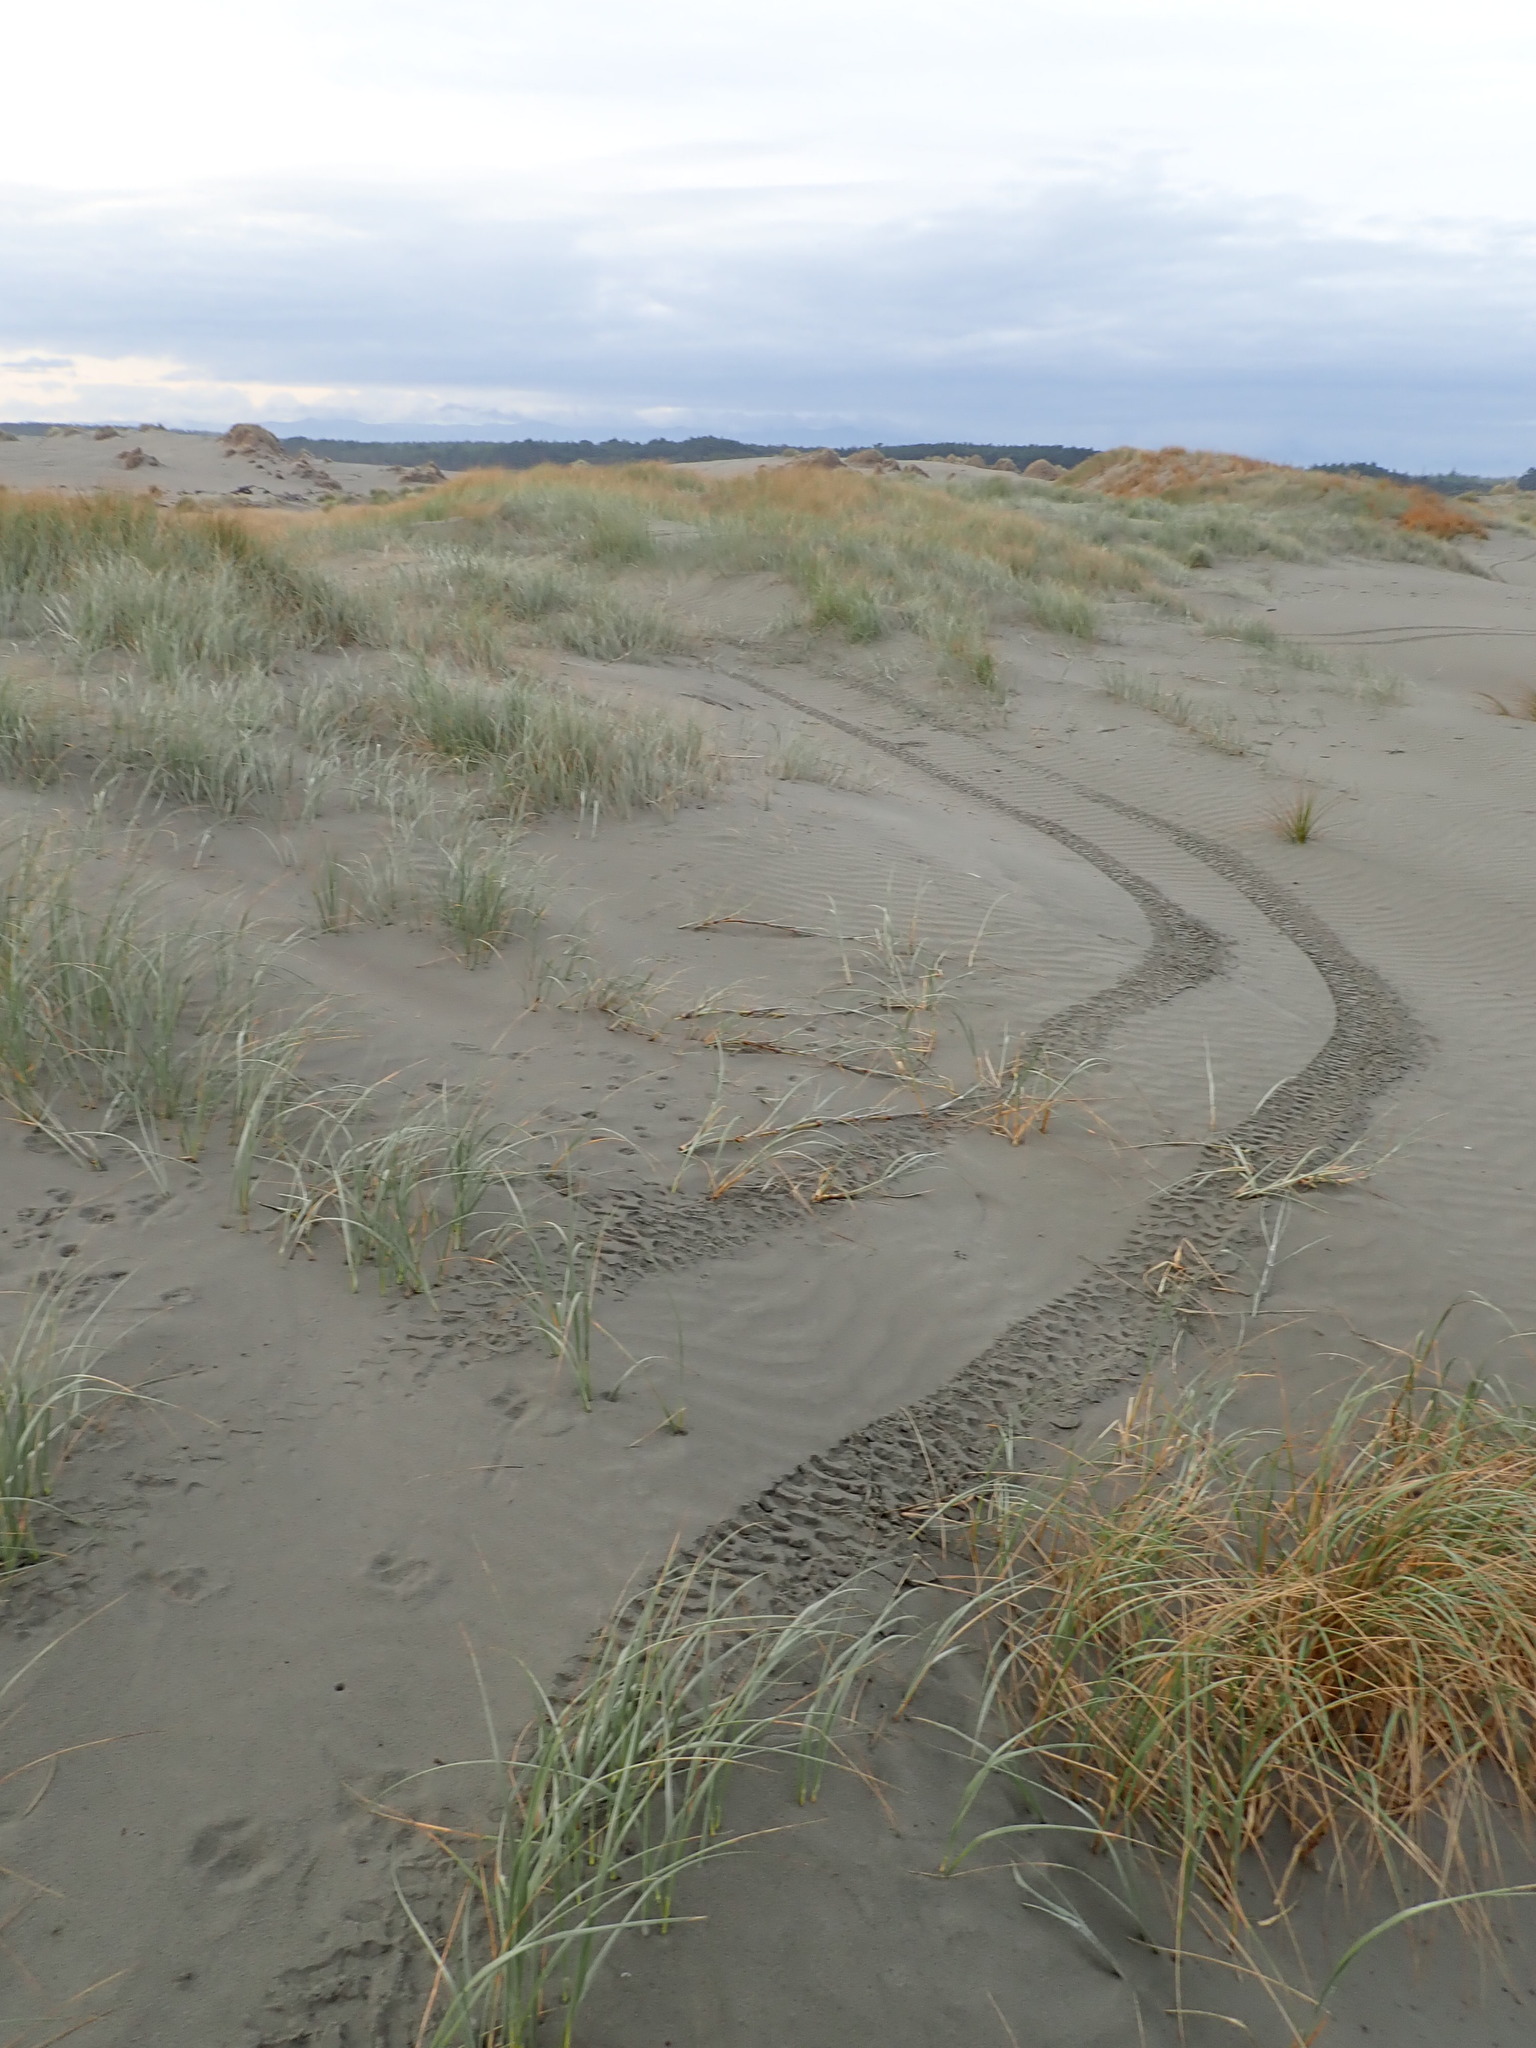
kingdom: Plantae
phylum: Tracheophyta
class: Liliopsida
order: Poales
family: Poaceae
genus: Spinifex
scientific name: Spinifex sericeus
